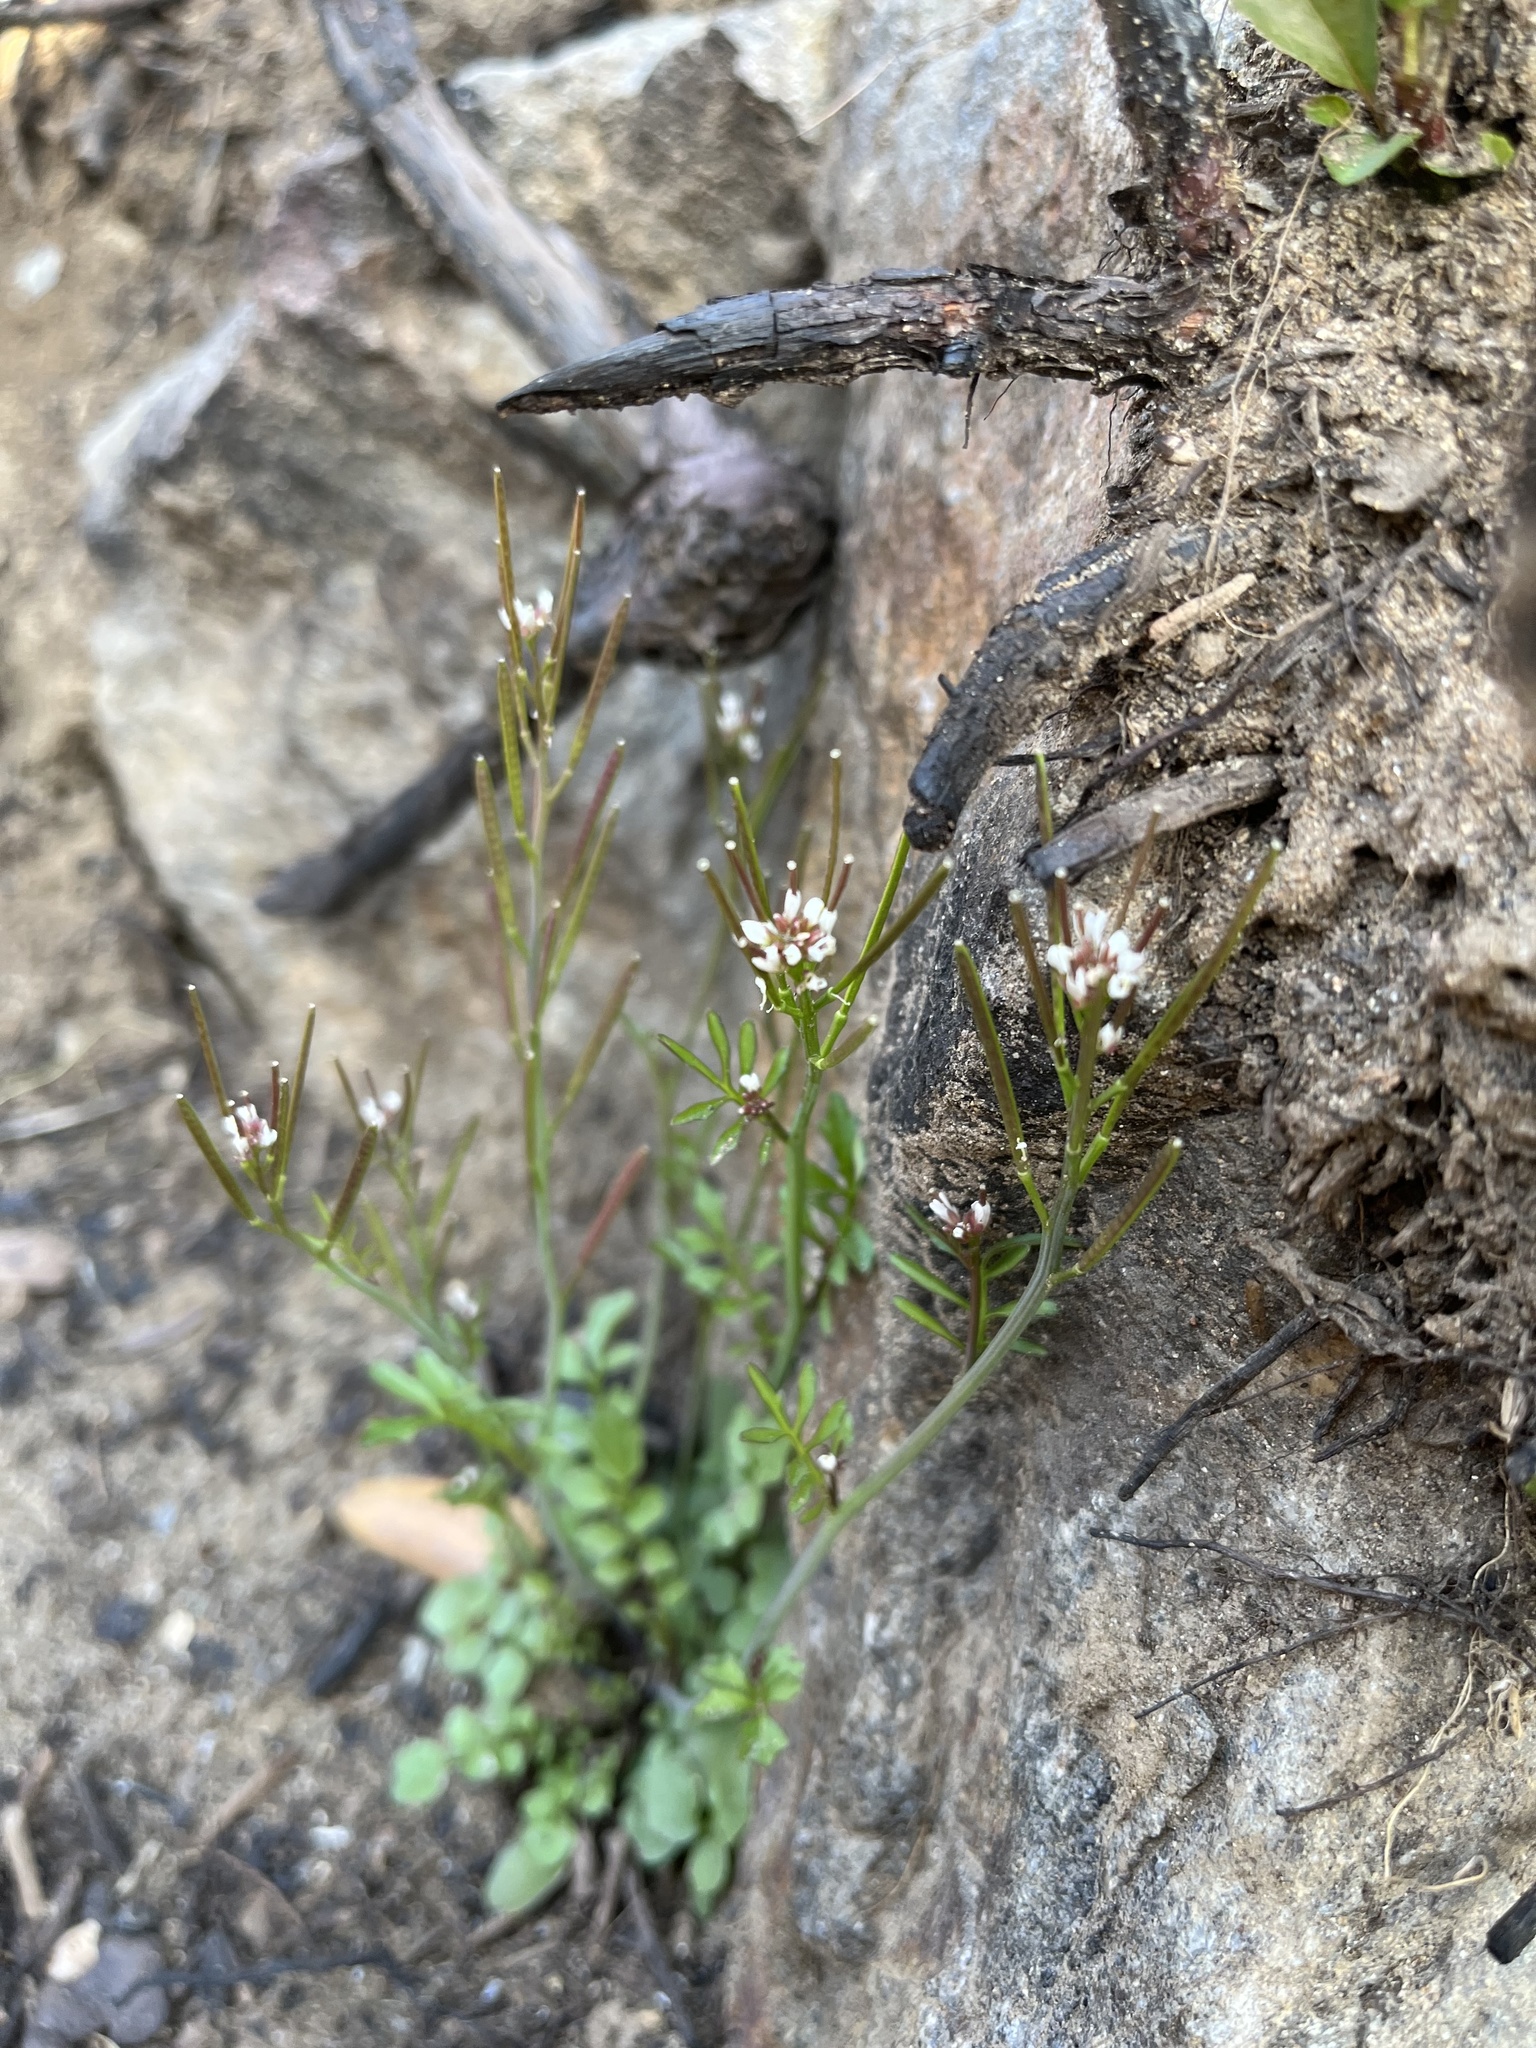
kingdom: Plantae
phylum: Tracheophyta
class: Magnoliopsida
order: Brassicales
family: Brassicaceae
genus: Cardamine
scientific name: Cardamine hirsuta
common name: Hairy bittercress
